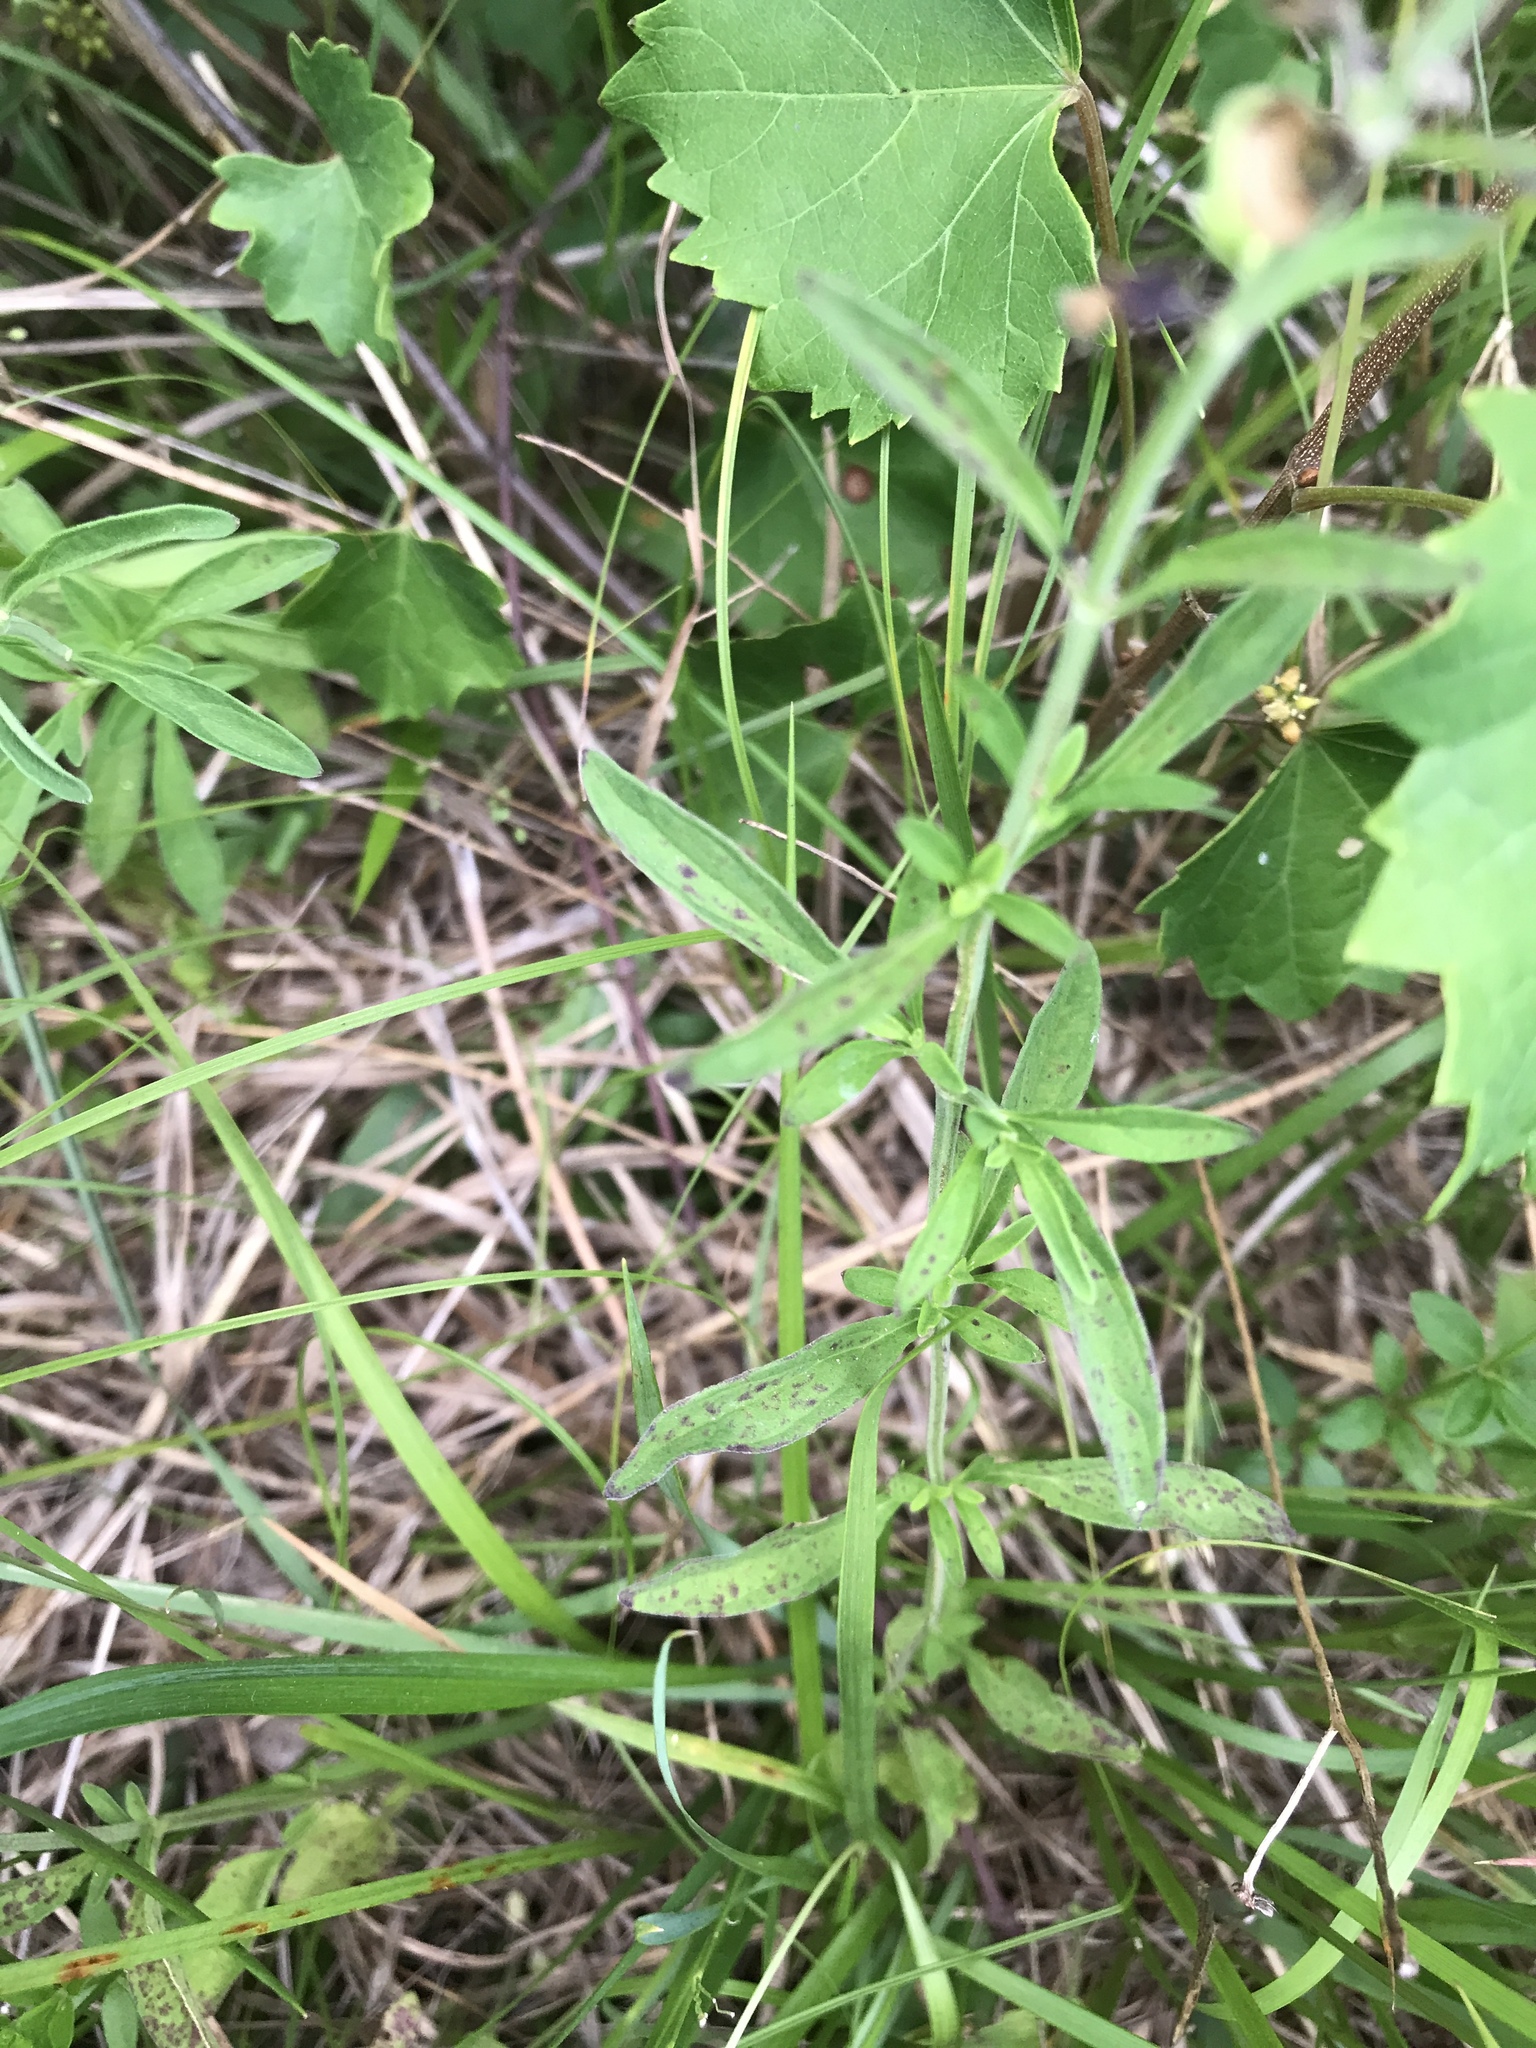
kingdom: Plantae
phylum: Tracheophyta
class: Magnoliopsida
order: Lamiales
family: Lamiaceae
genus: Scutellaria
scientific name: Scutellaria integrifolia
